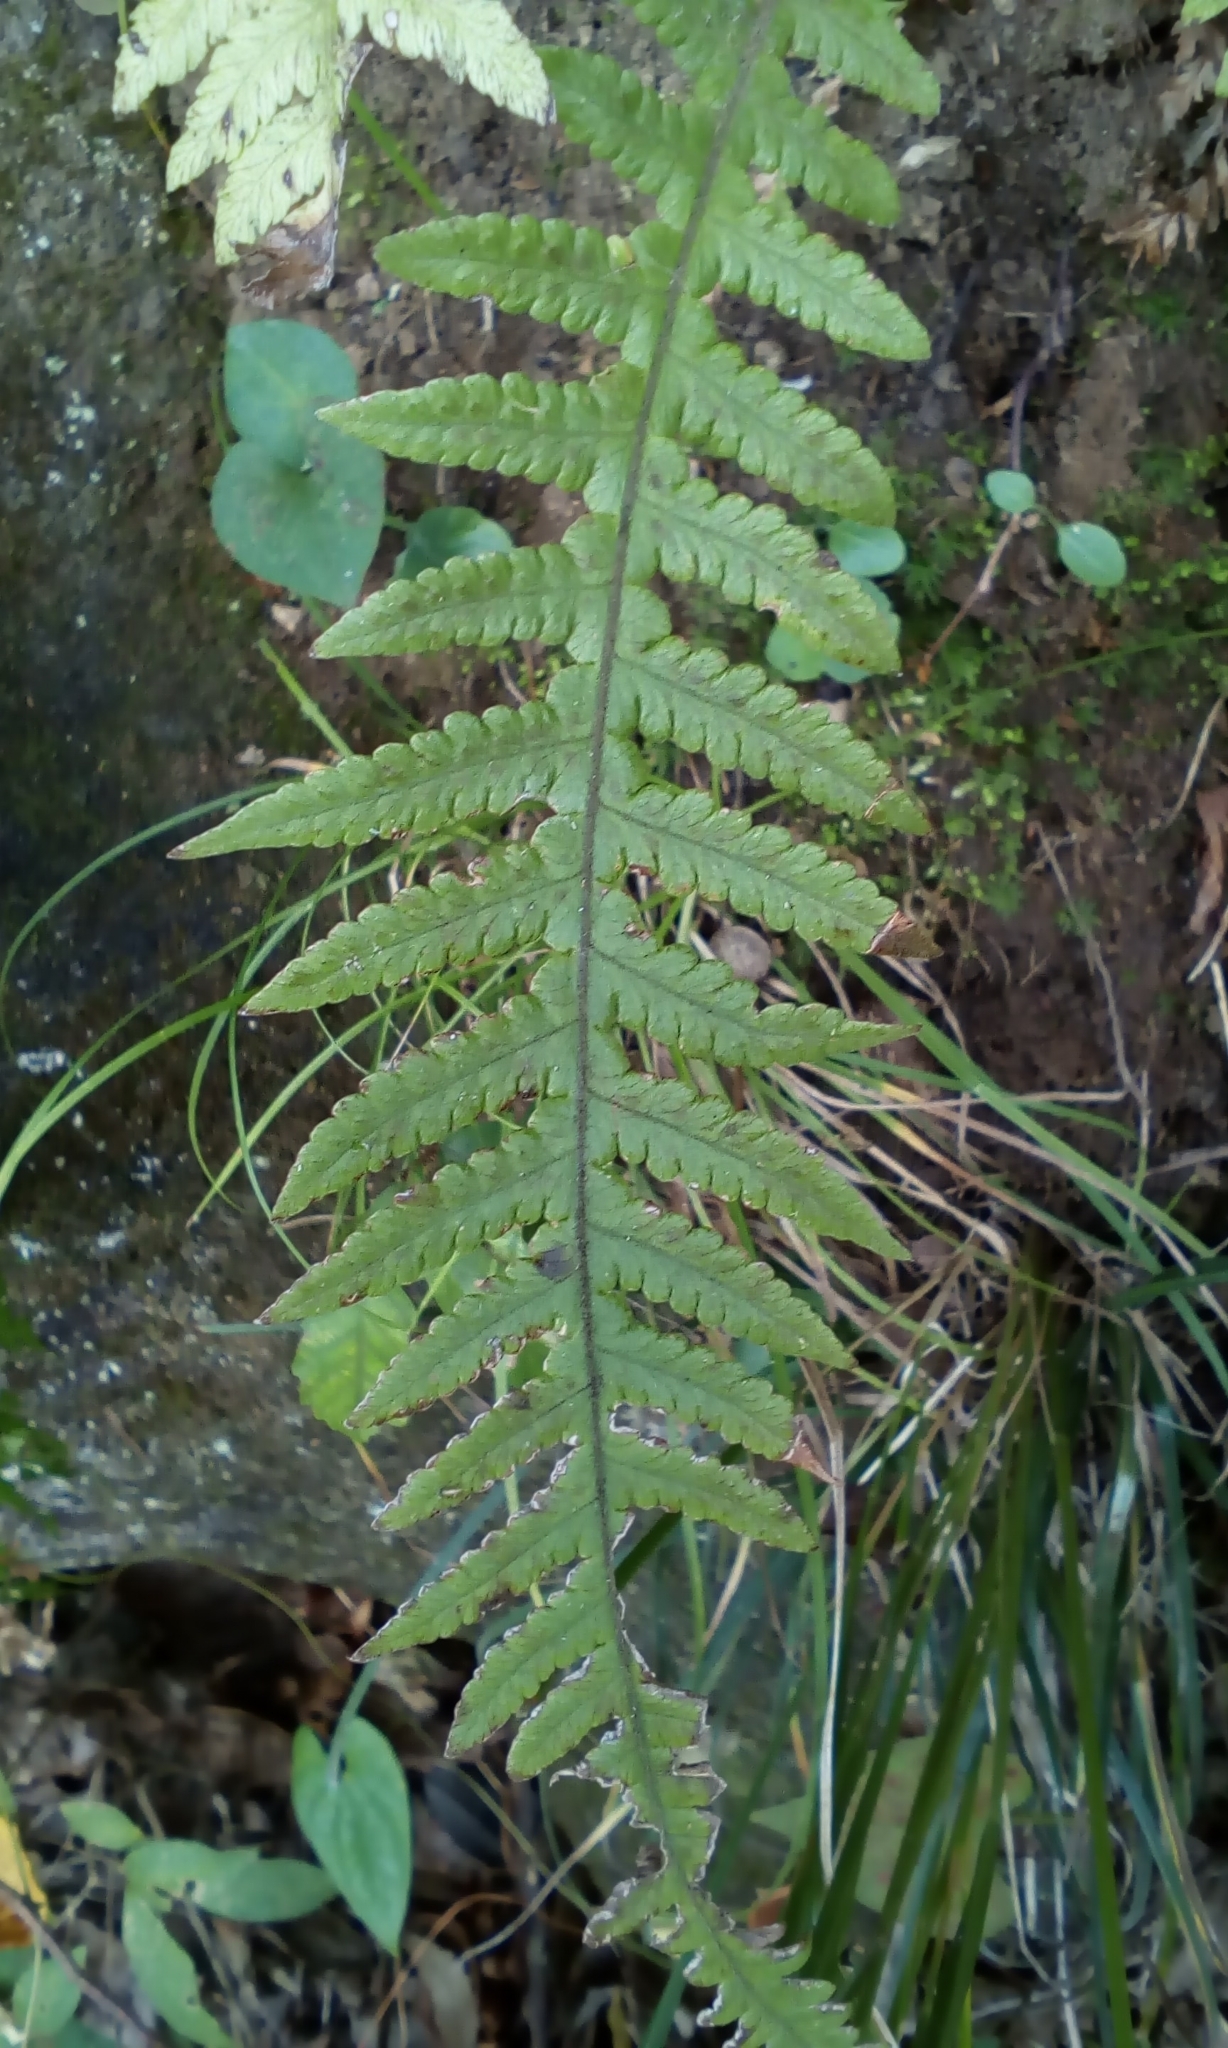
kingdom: Plantae
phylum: Tracheophyta
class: Polypodiopsida
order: Polypodiales
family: Thelypteridaceae
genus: Phegopteris
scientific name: Phegopteris decursive-pinnata
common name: Japanese beech fern
